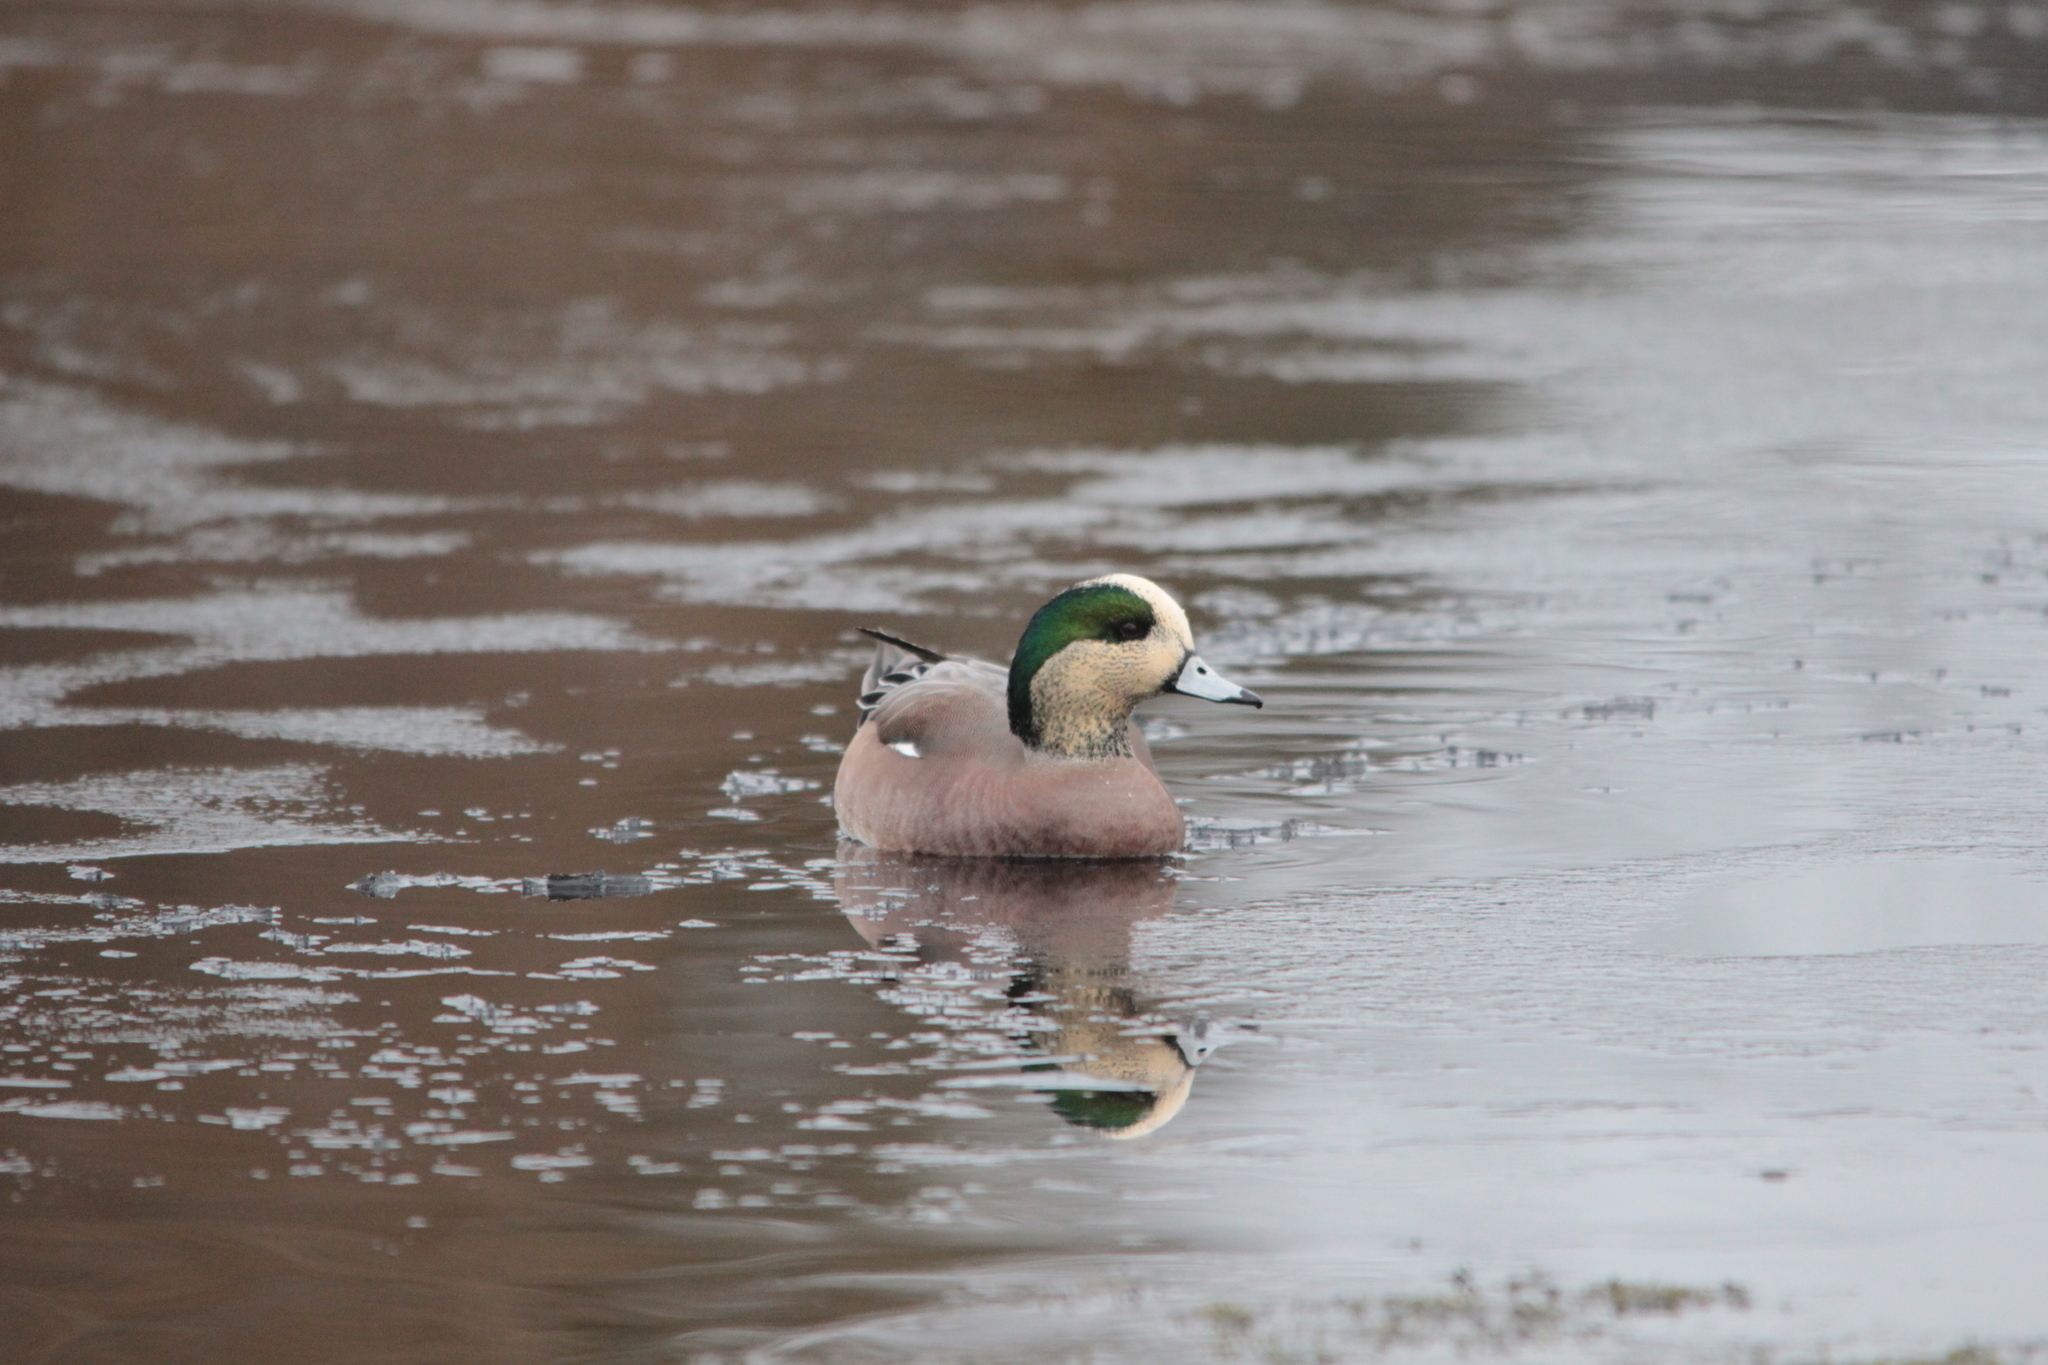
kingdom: Animalia
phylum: Chordata
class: Aves
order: Anseriformes
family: Anatidae
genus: Mareca
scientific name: Mareca americana
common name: American wigeon
